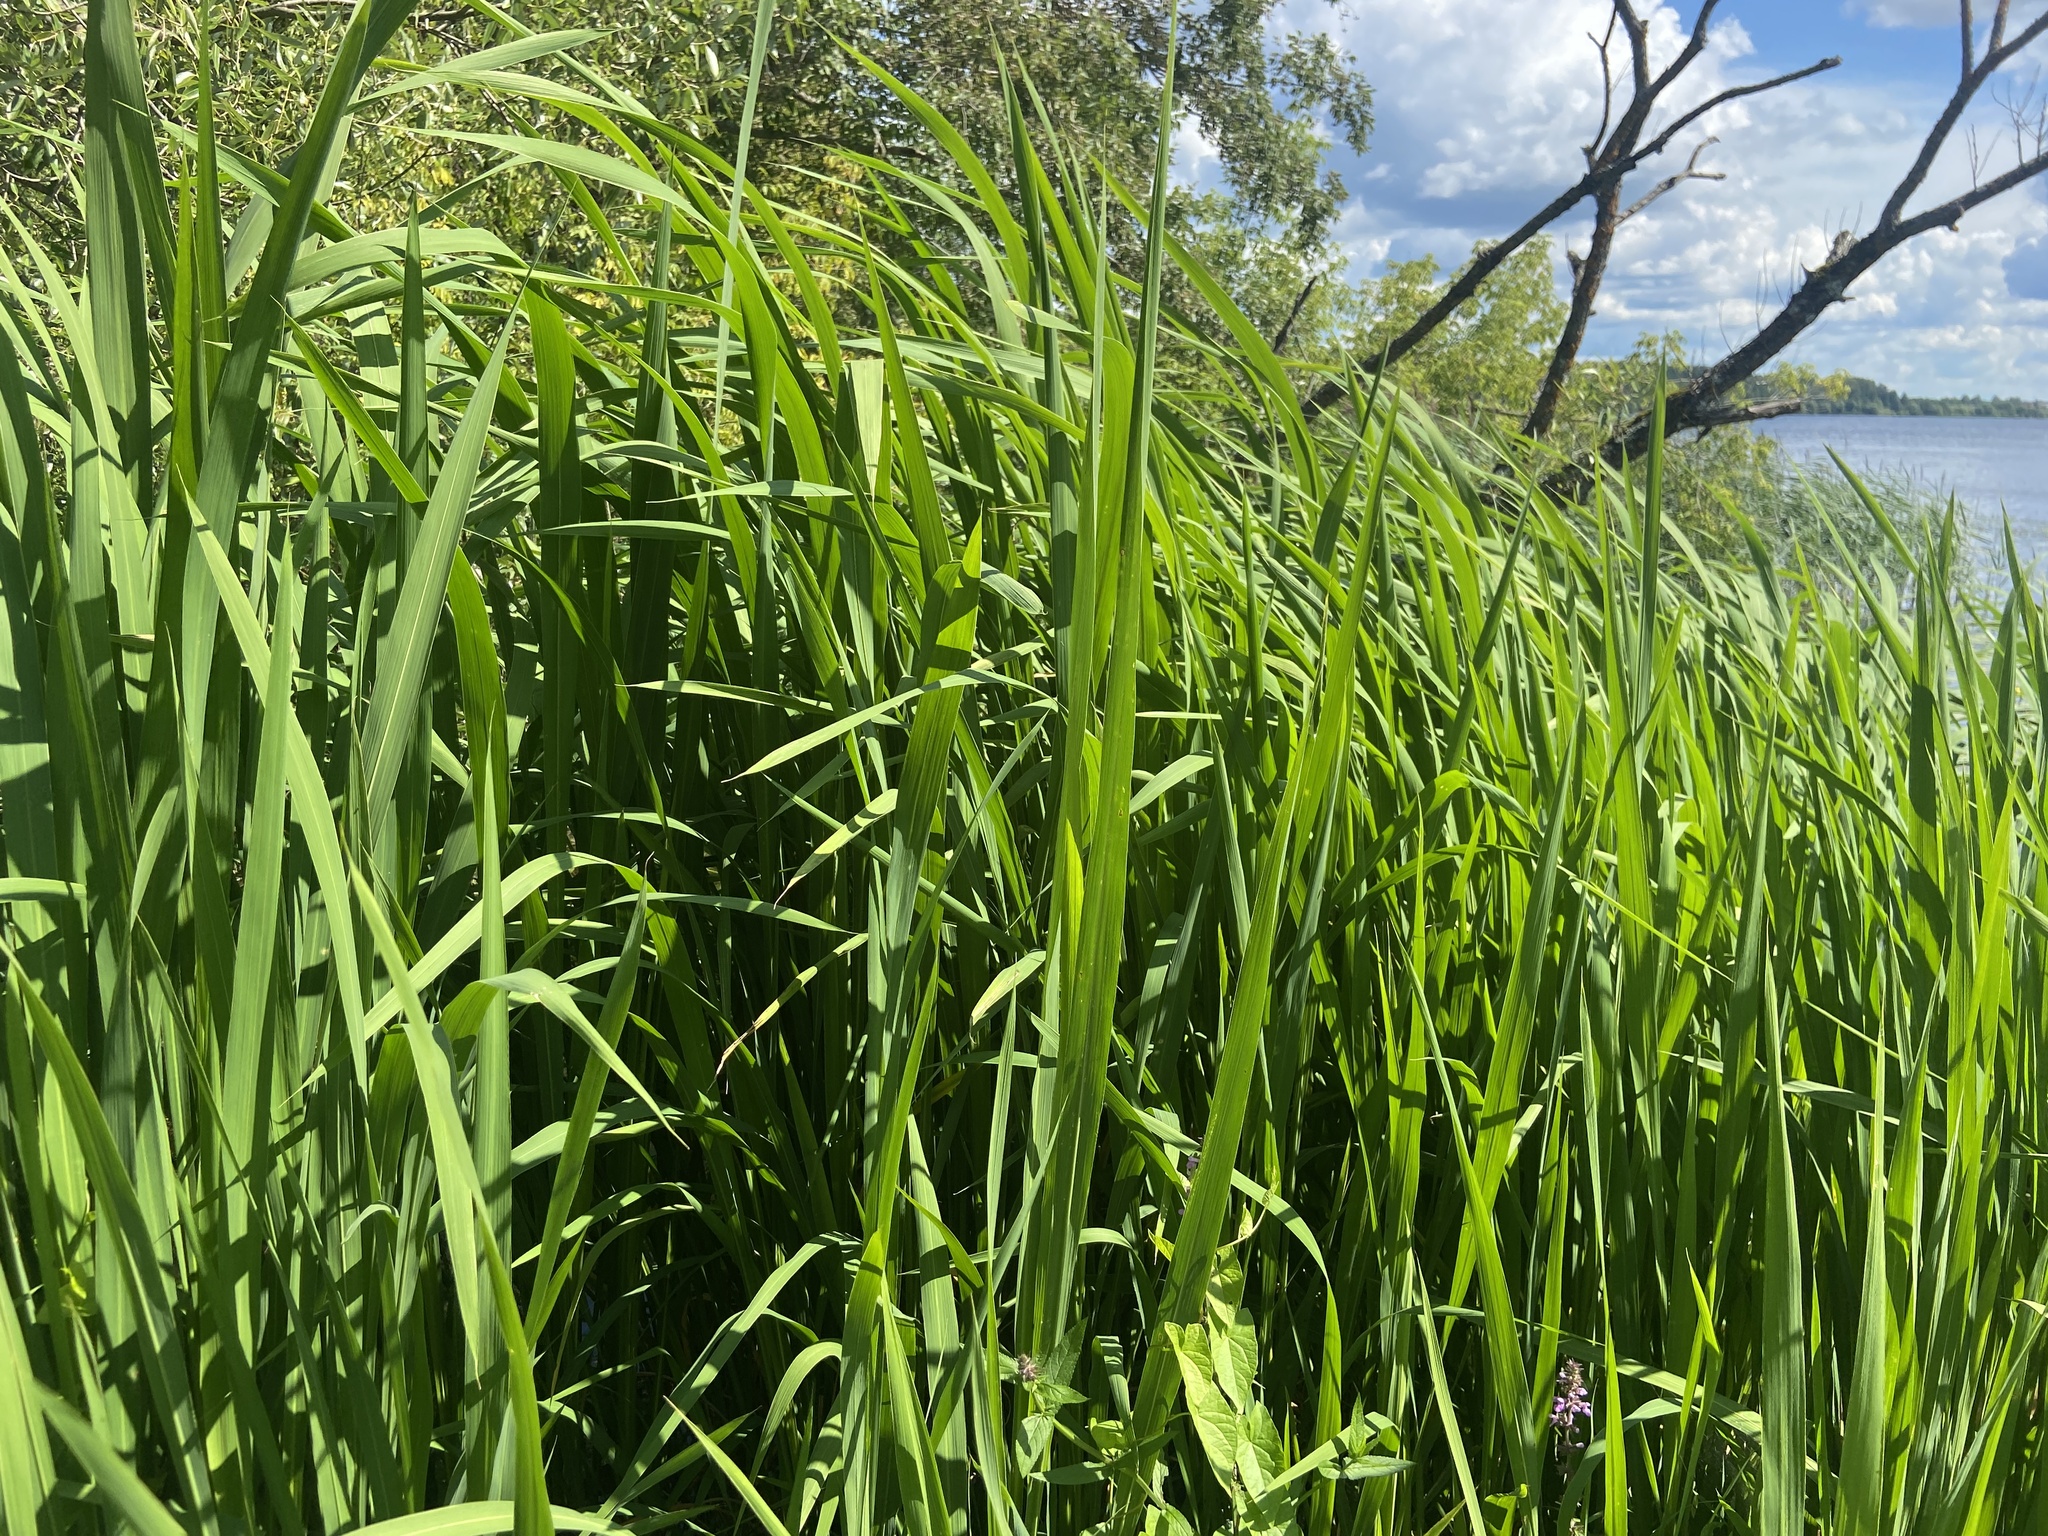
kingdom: Plantae
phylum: Tracheophyta
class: Liliopsida
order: Poales
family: Poaceae
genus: Zizania
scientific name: Zizania latifolia
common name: Manchurian wildrice
